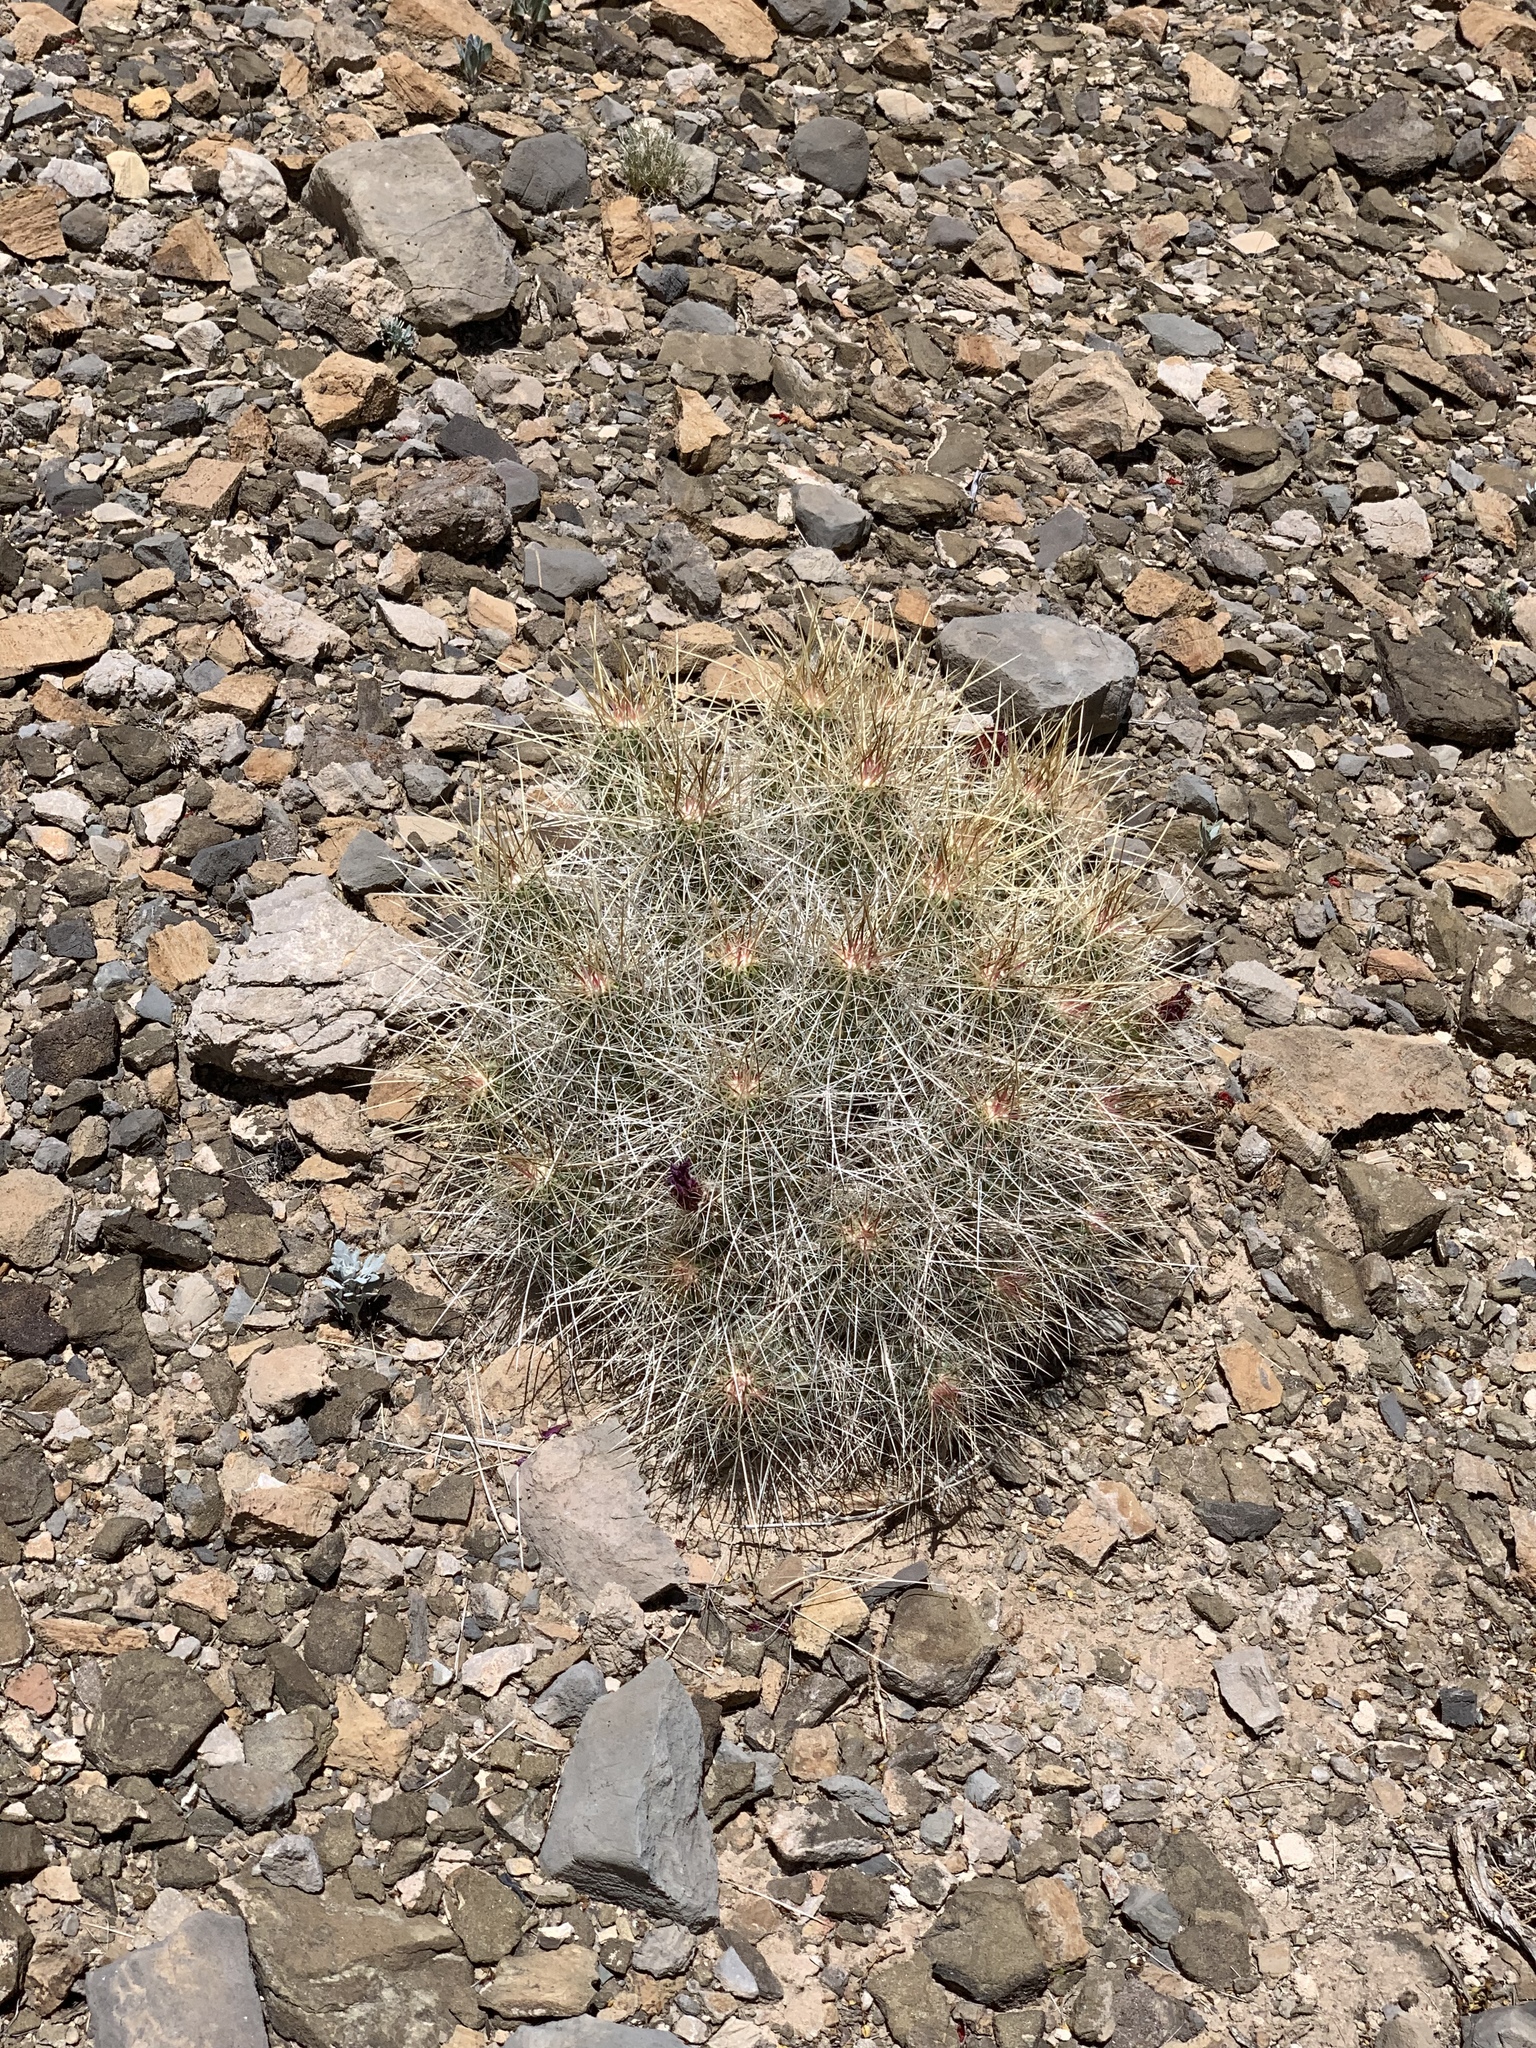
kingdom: Plantae
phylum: Tracheophyta
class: Magnoliopsida
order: Caryophyllales
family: Cactaceae
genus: Echinocereus
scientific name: Echinocereus stramineus
